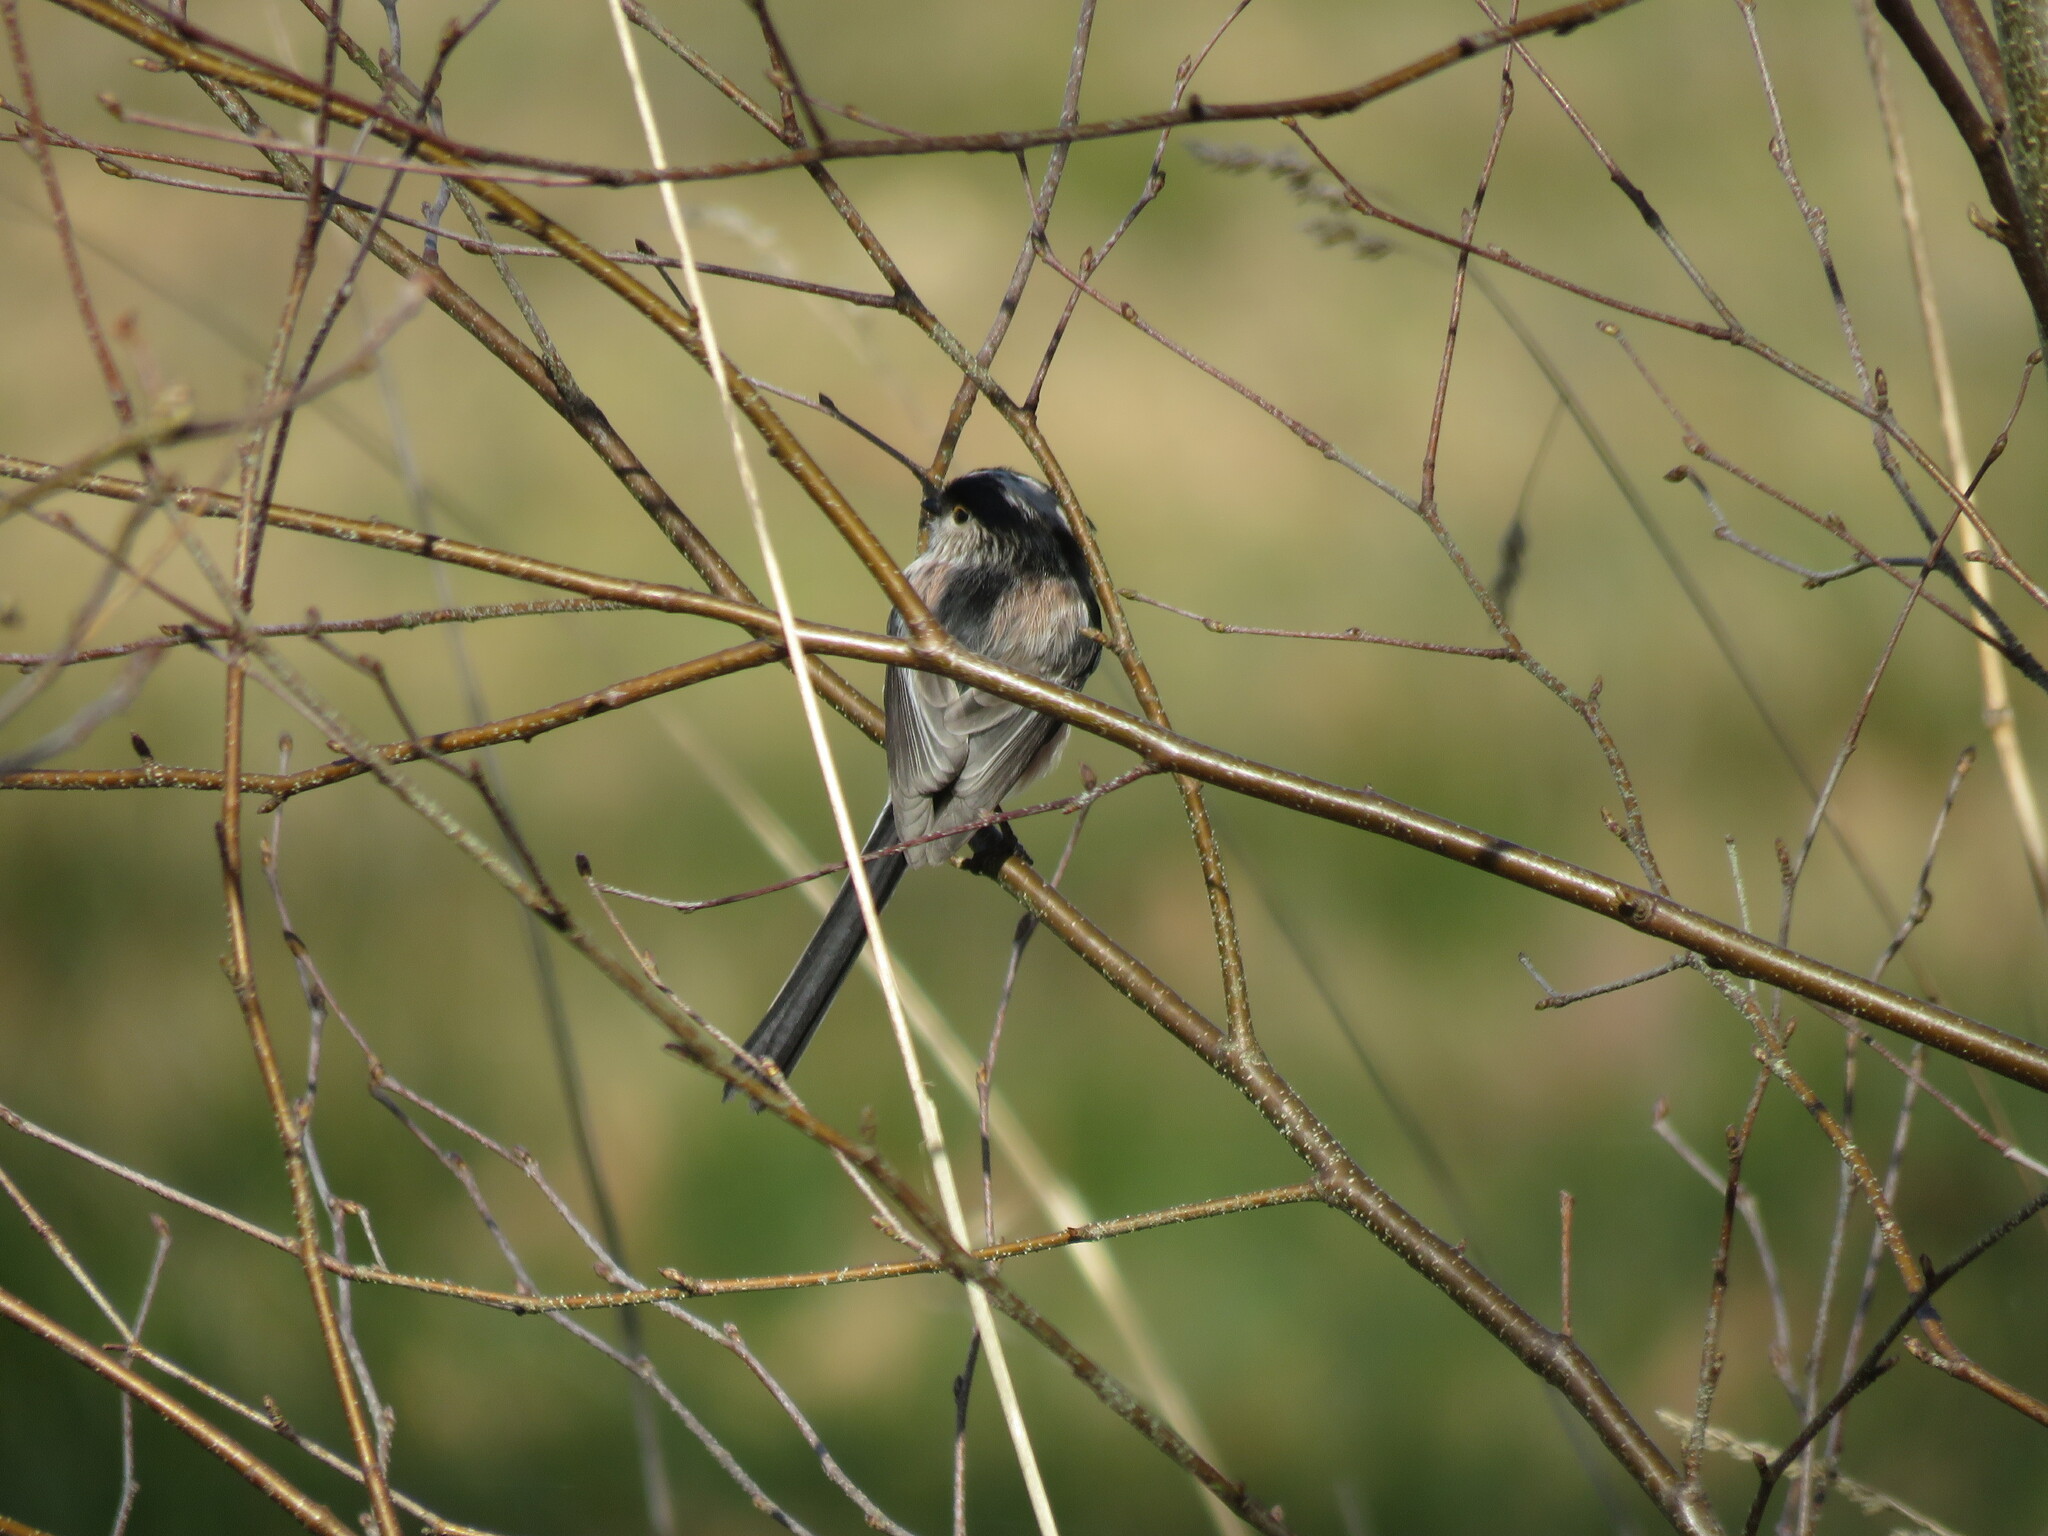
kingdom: Animalia
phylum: Chordata
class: Aves
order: Passeriformes
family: Aegithalidae
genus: Aegithalos
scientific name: Aegithalos caudatus
